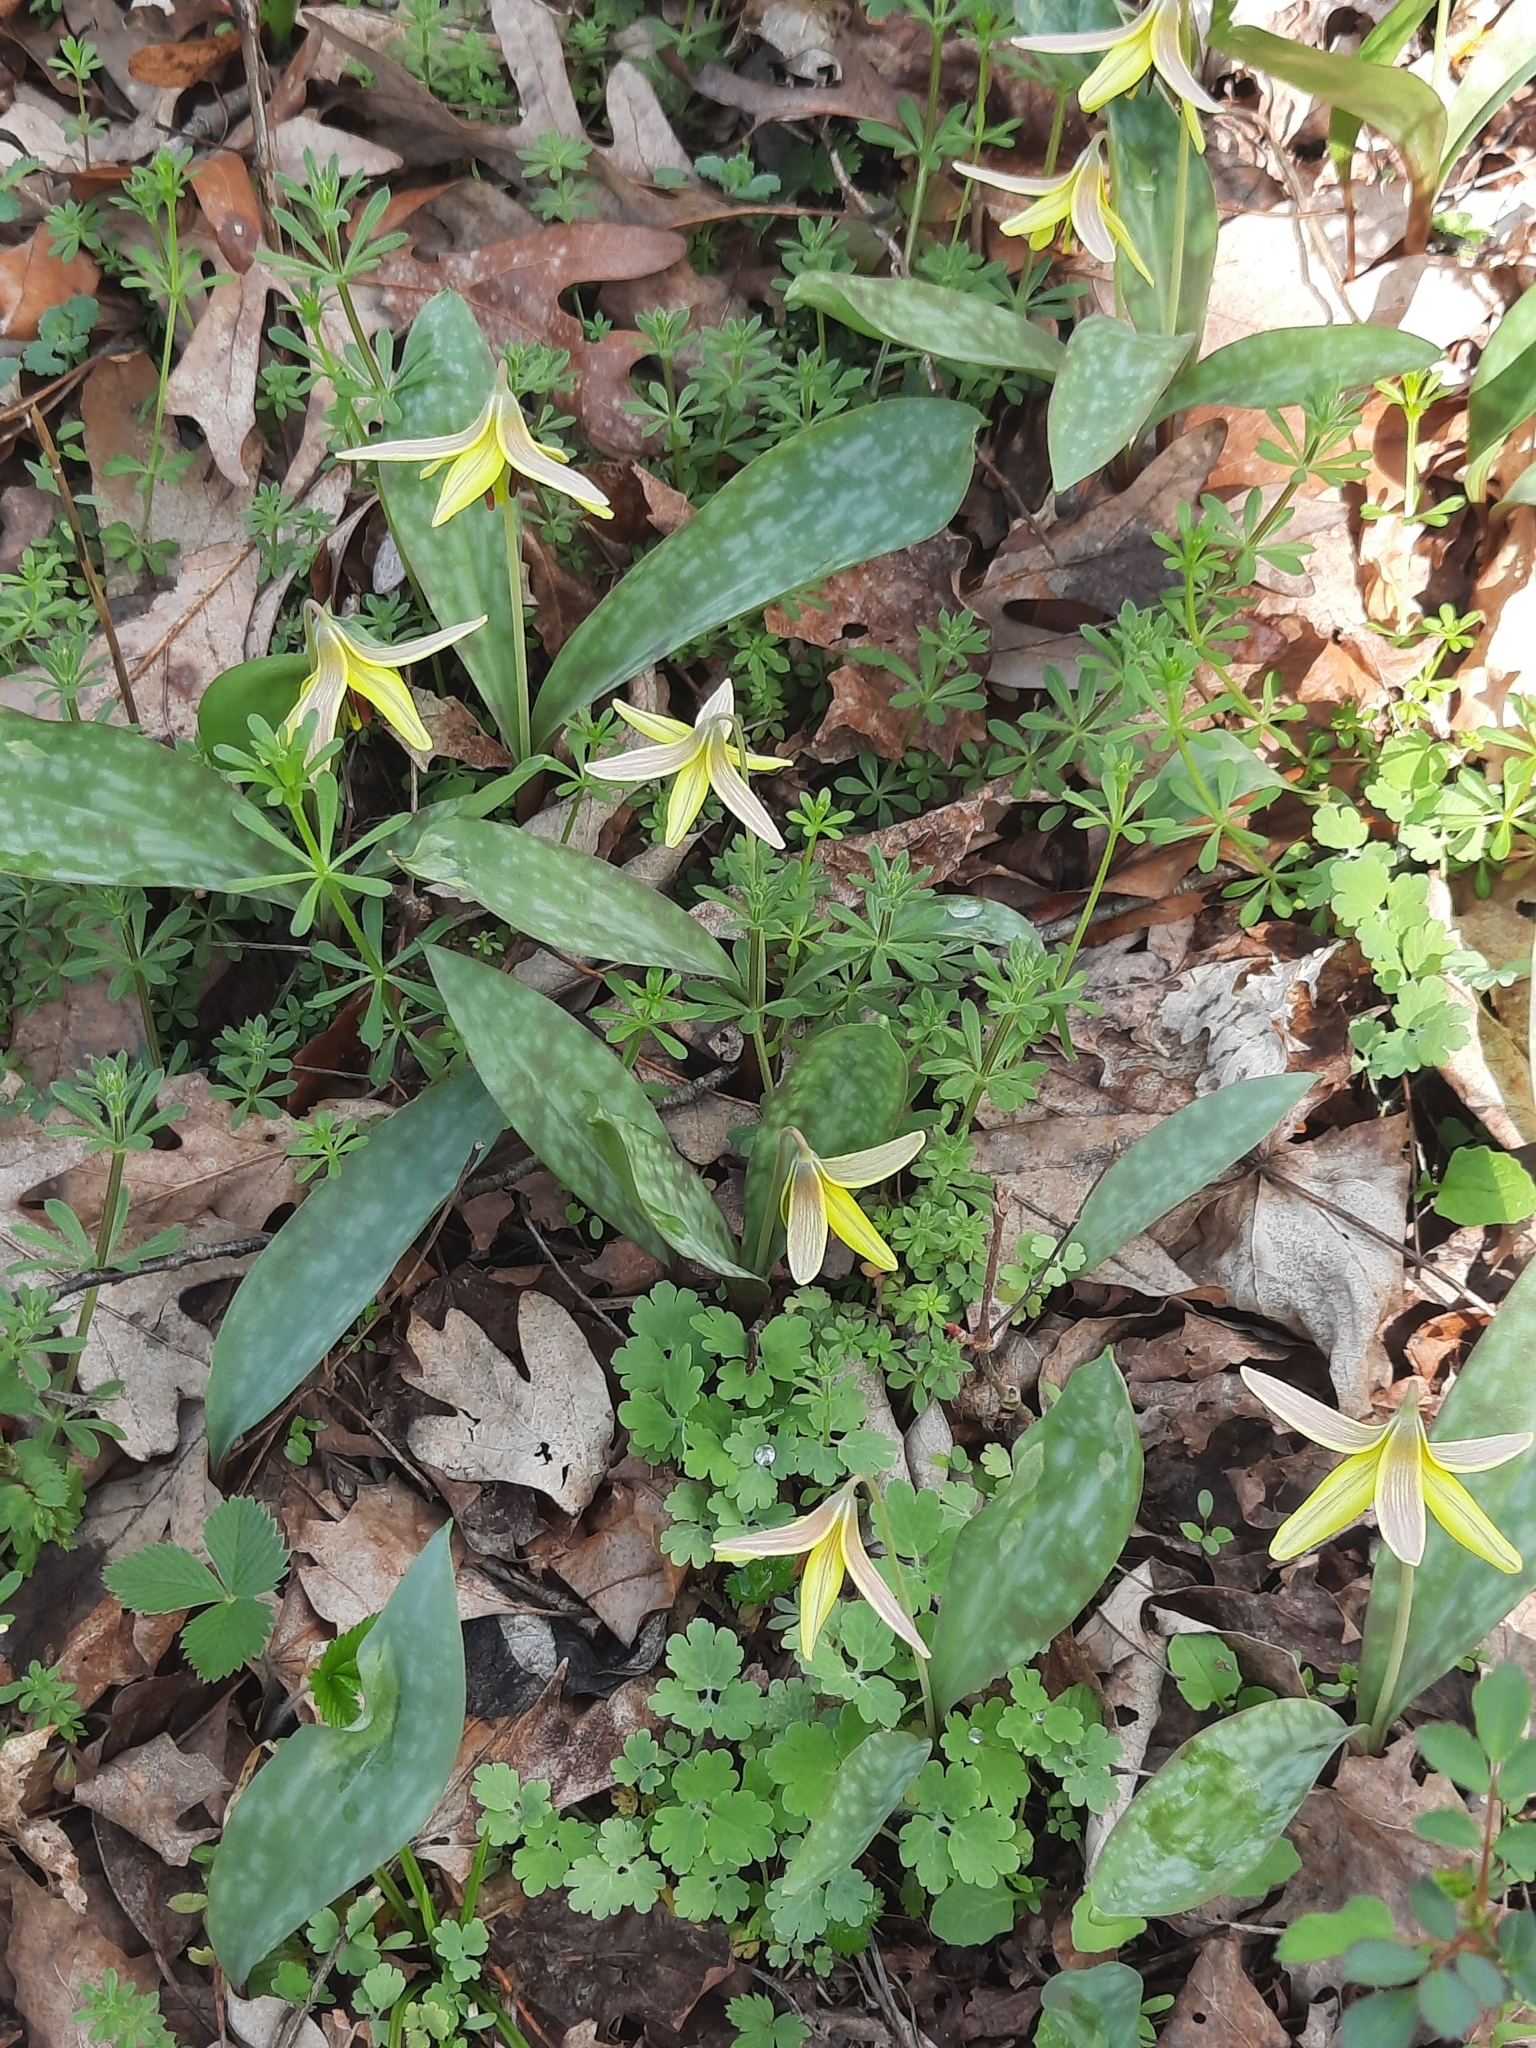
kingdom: Plantae
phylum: Tracheophyta
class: Liliopsida
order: Liliales
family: Liliaceae
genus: Erythronium
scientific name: Erythronium americanum
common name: Yellow adder's-tongue
